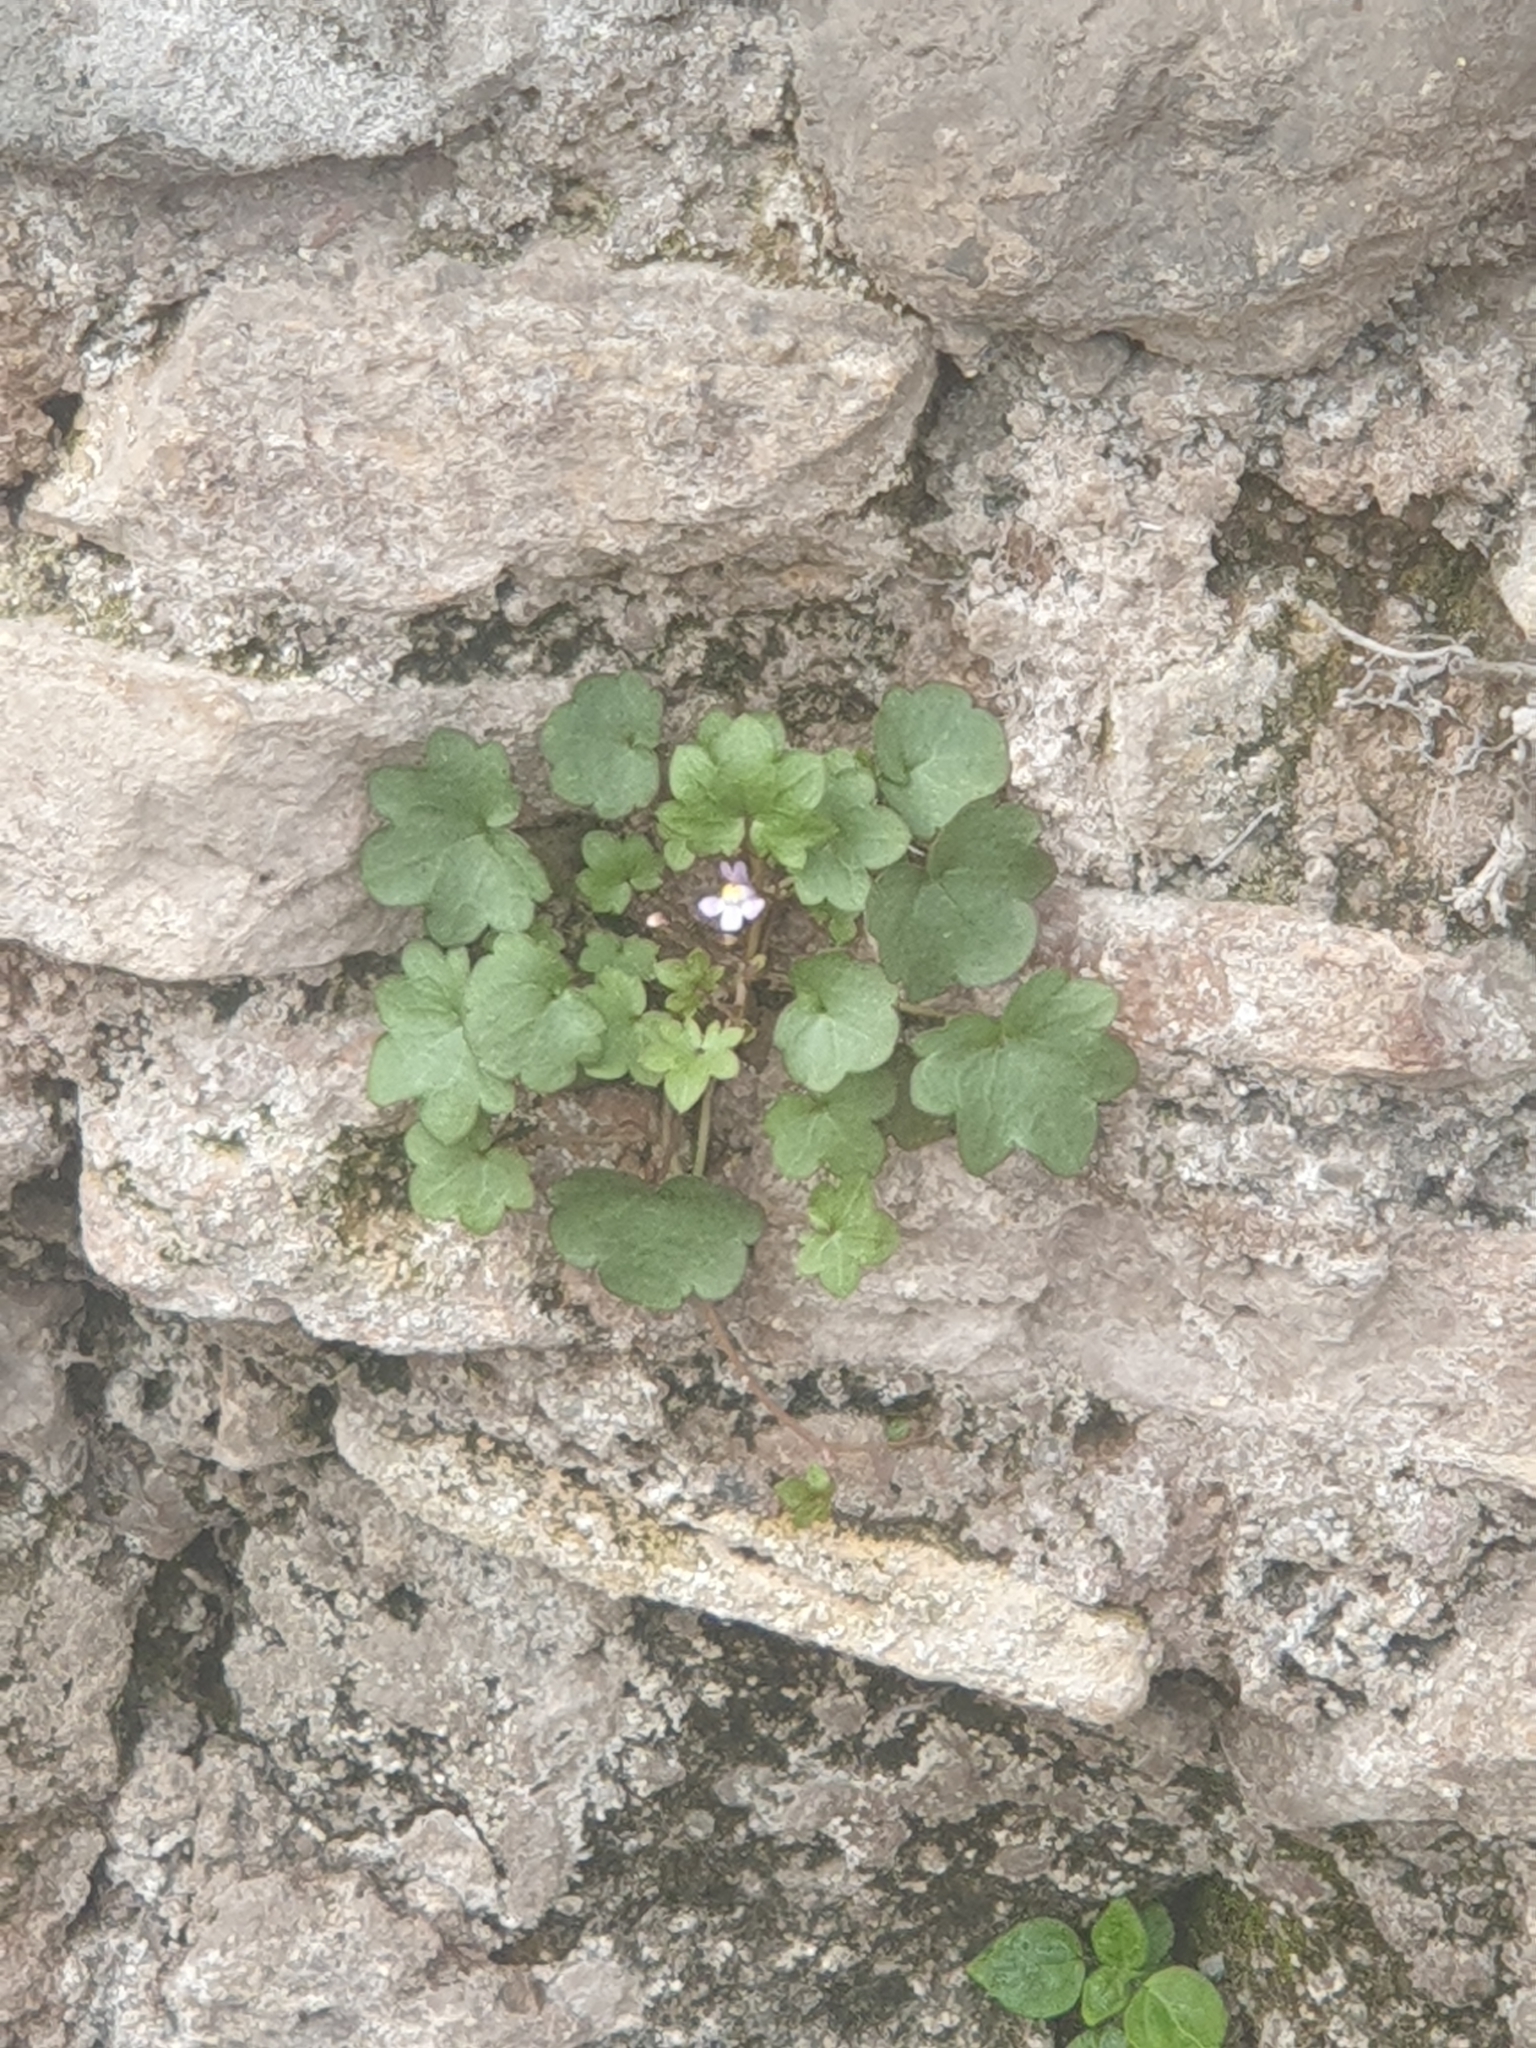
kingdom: Plantae
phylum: Tracheophyta
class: Magnoliopsida
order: Lamiales
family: Plantaginaceae
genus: Cymbalaria
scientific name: Cymbalaria muralis
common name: Ivy-leaved toadflax
